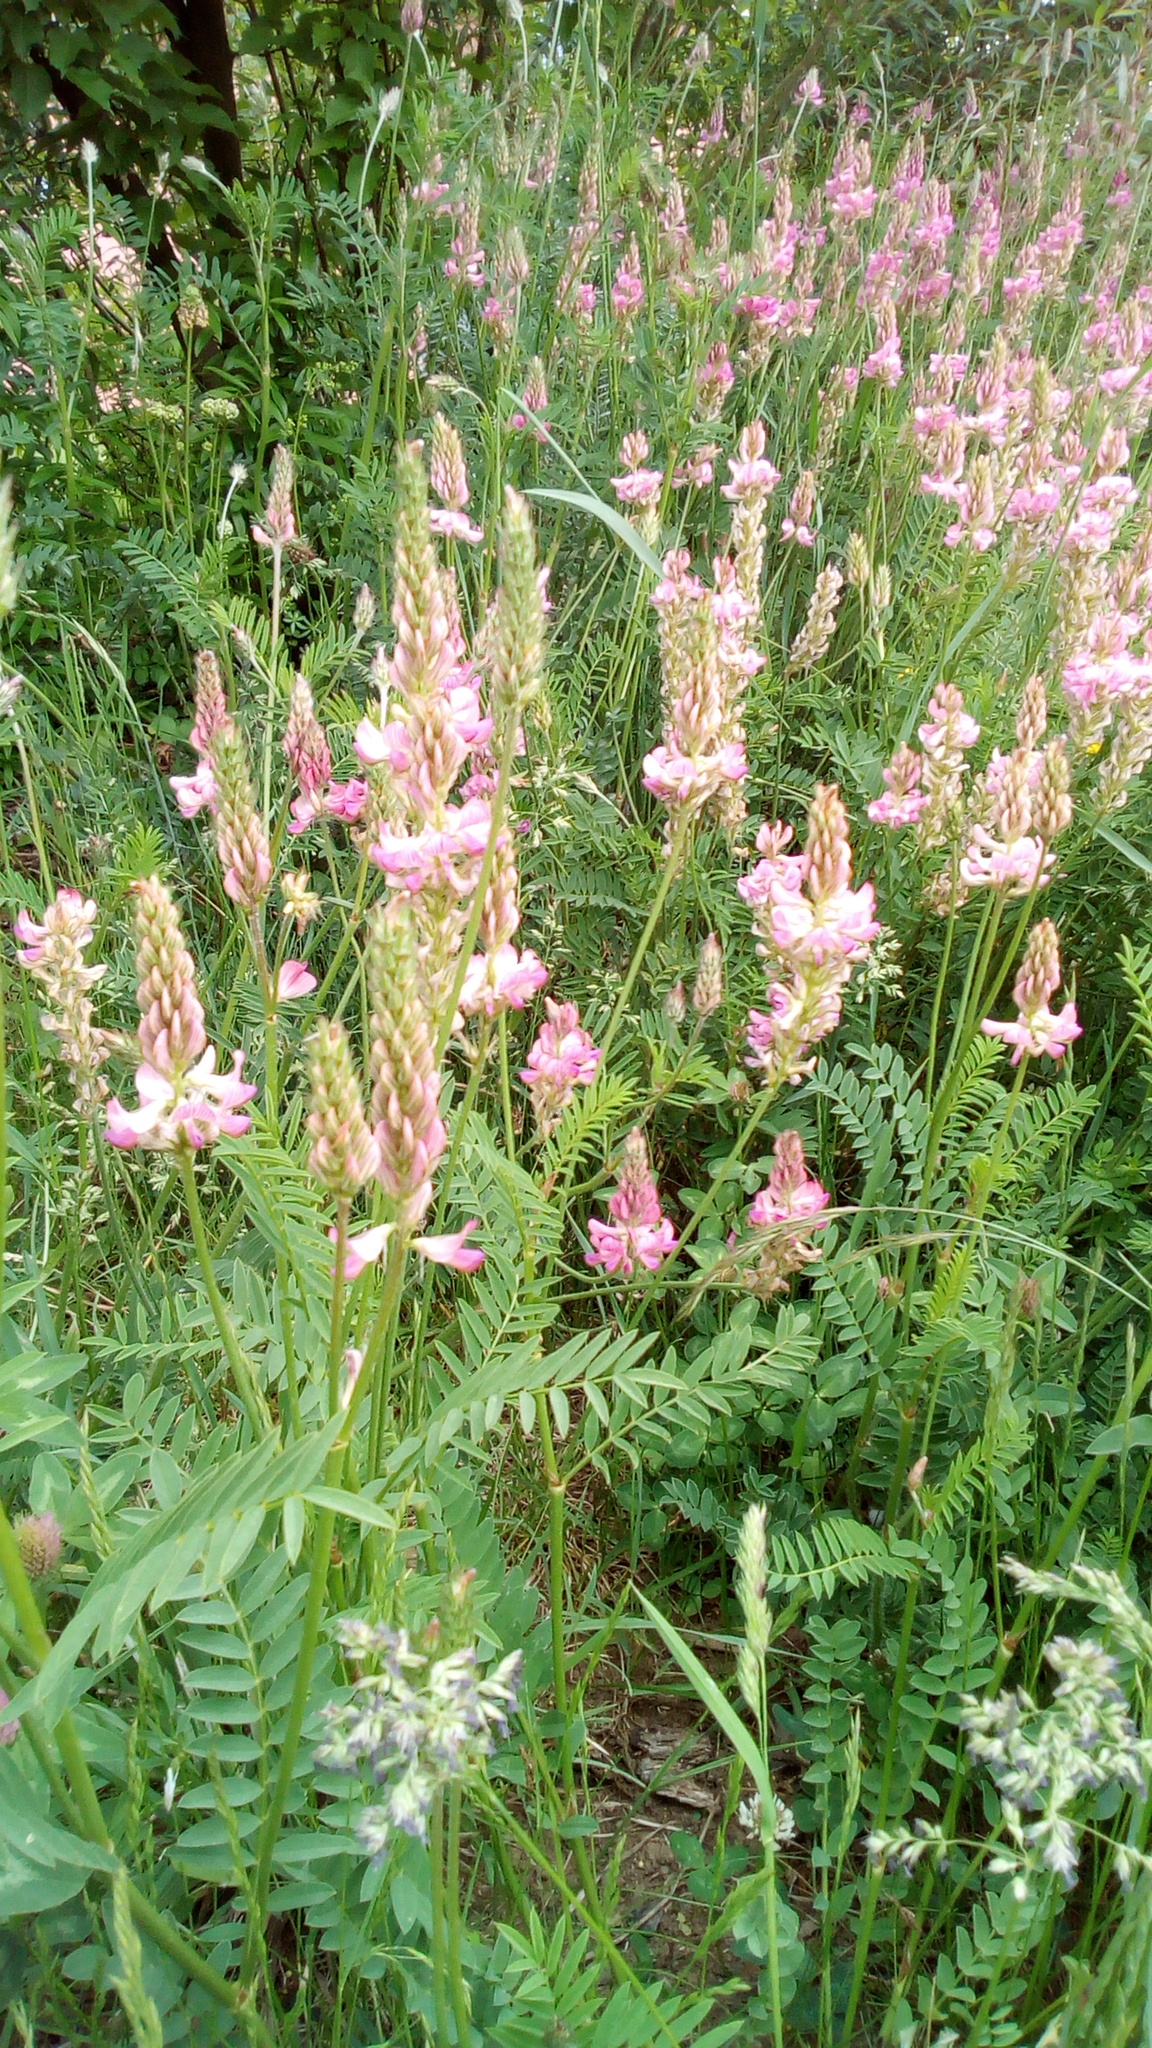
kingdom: Plantae
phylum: Tracheophyta
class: Magnoliopsida
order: Fabales
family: Fabaceae
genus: Onobrychis
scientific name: Onobrychis viciifolia
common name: Sainfoin
